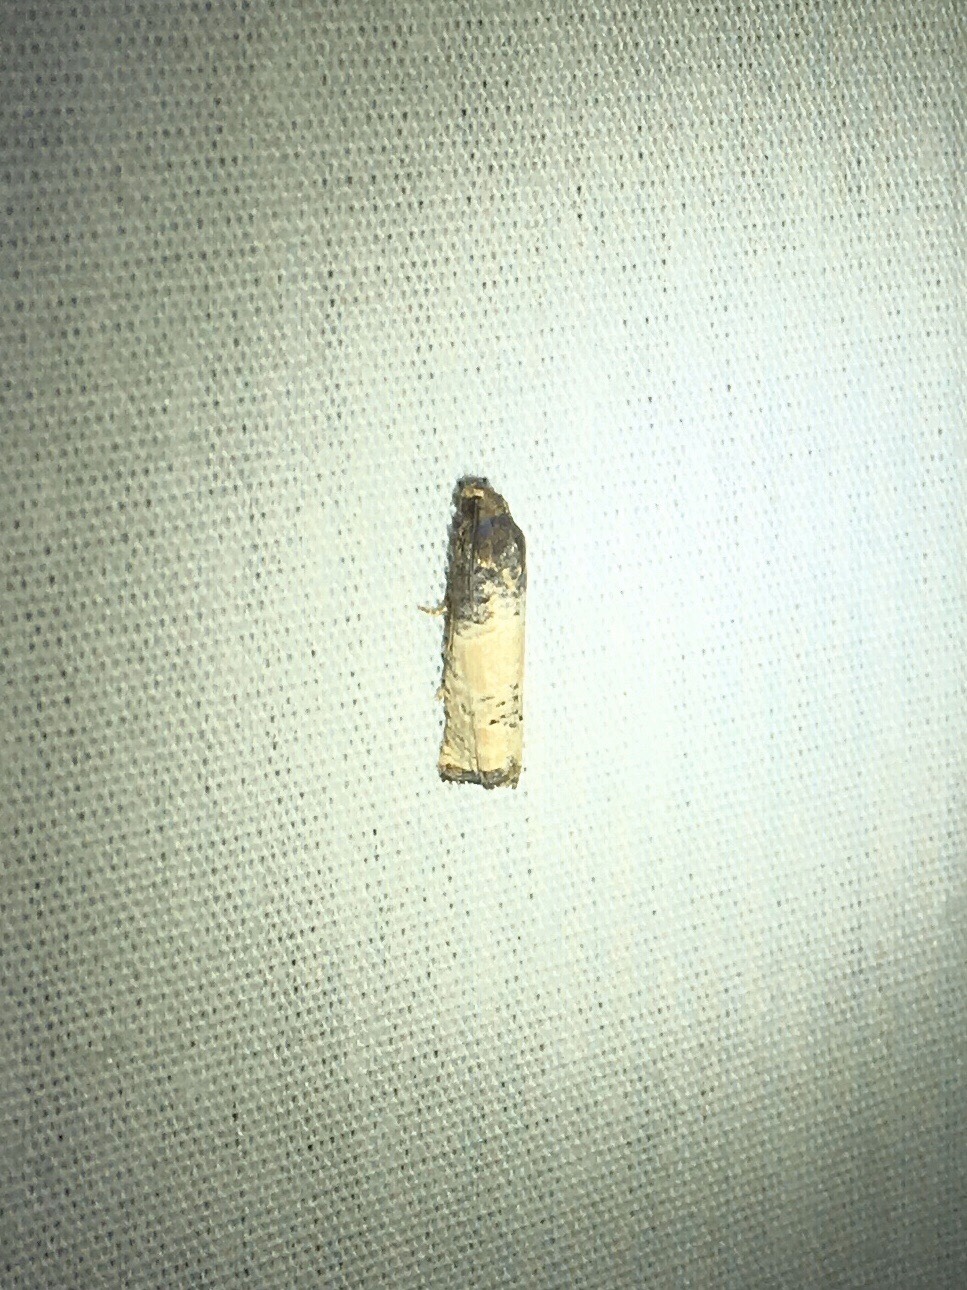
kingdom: Animalia
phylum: Arthropoda
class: Insecta
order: Lepidoptera
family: Tortricidae
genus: Epiblema
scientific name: Epiblema desertana
